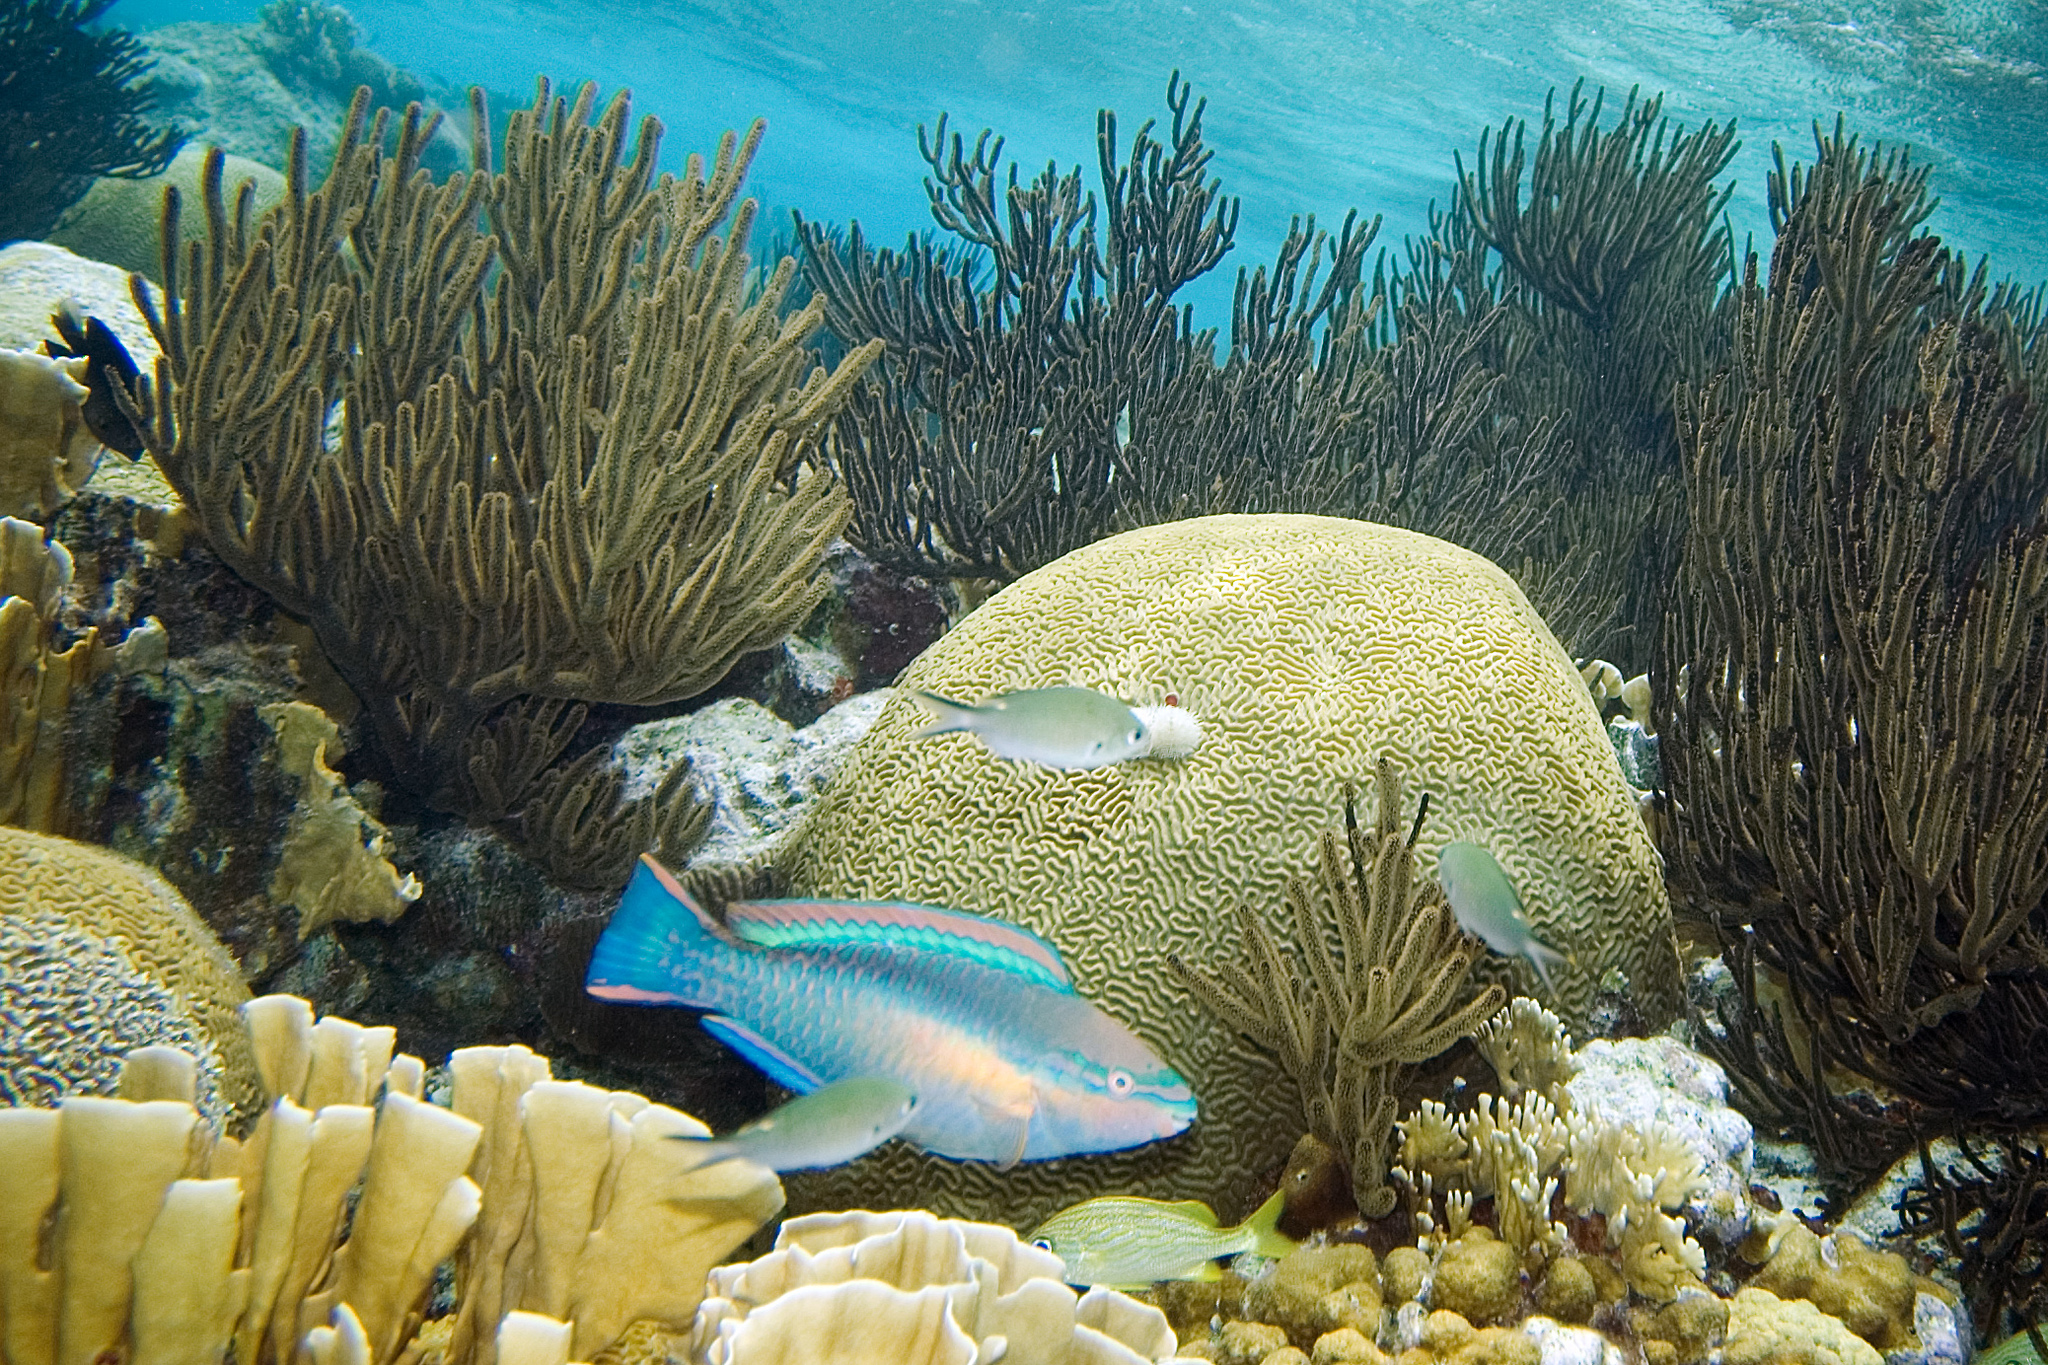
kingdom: Animalia
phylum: Chordata
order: Perciformes
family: Scaridae
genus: Scarus
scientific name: Scarus taeniopterus
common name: Princess parrotfish
